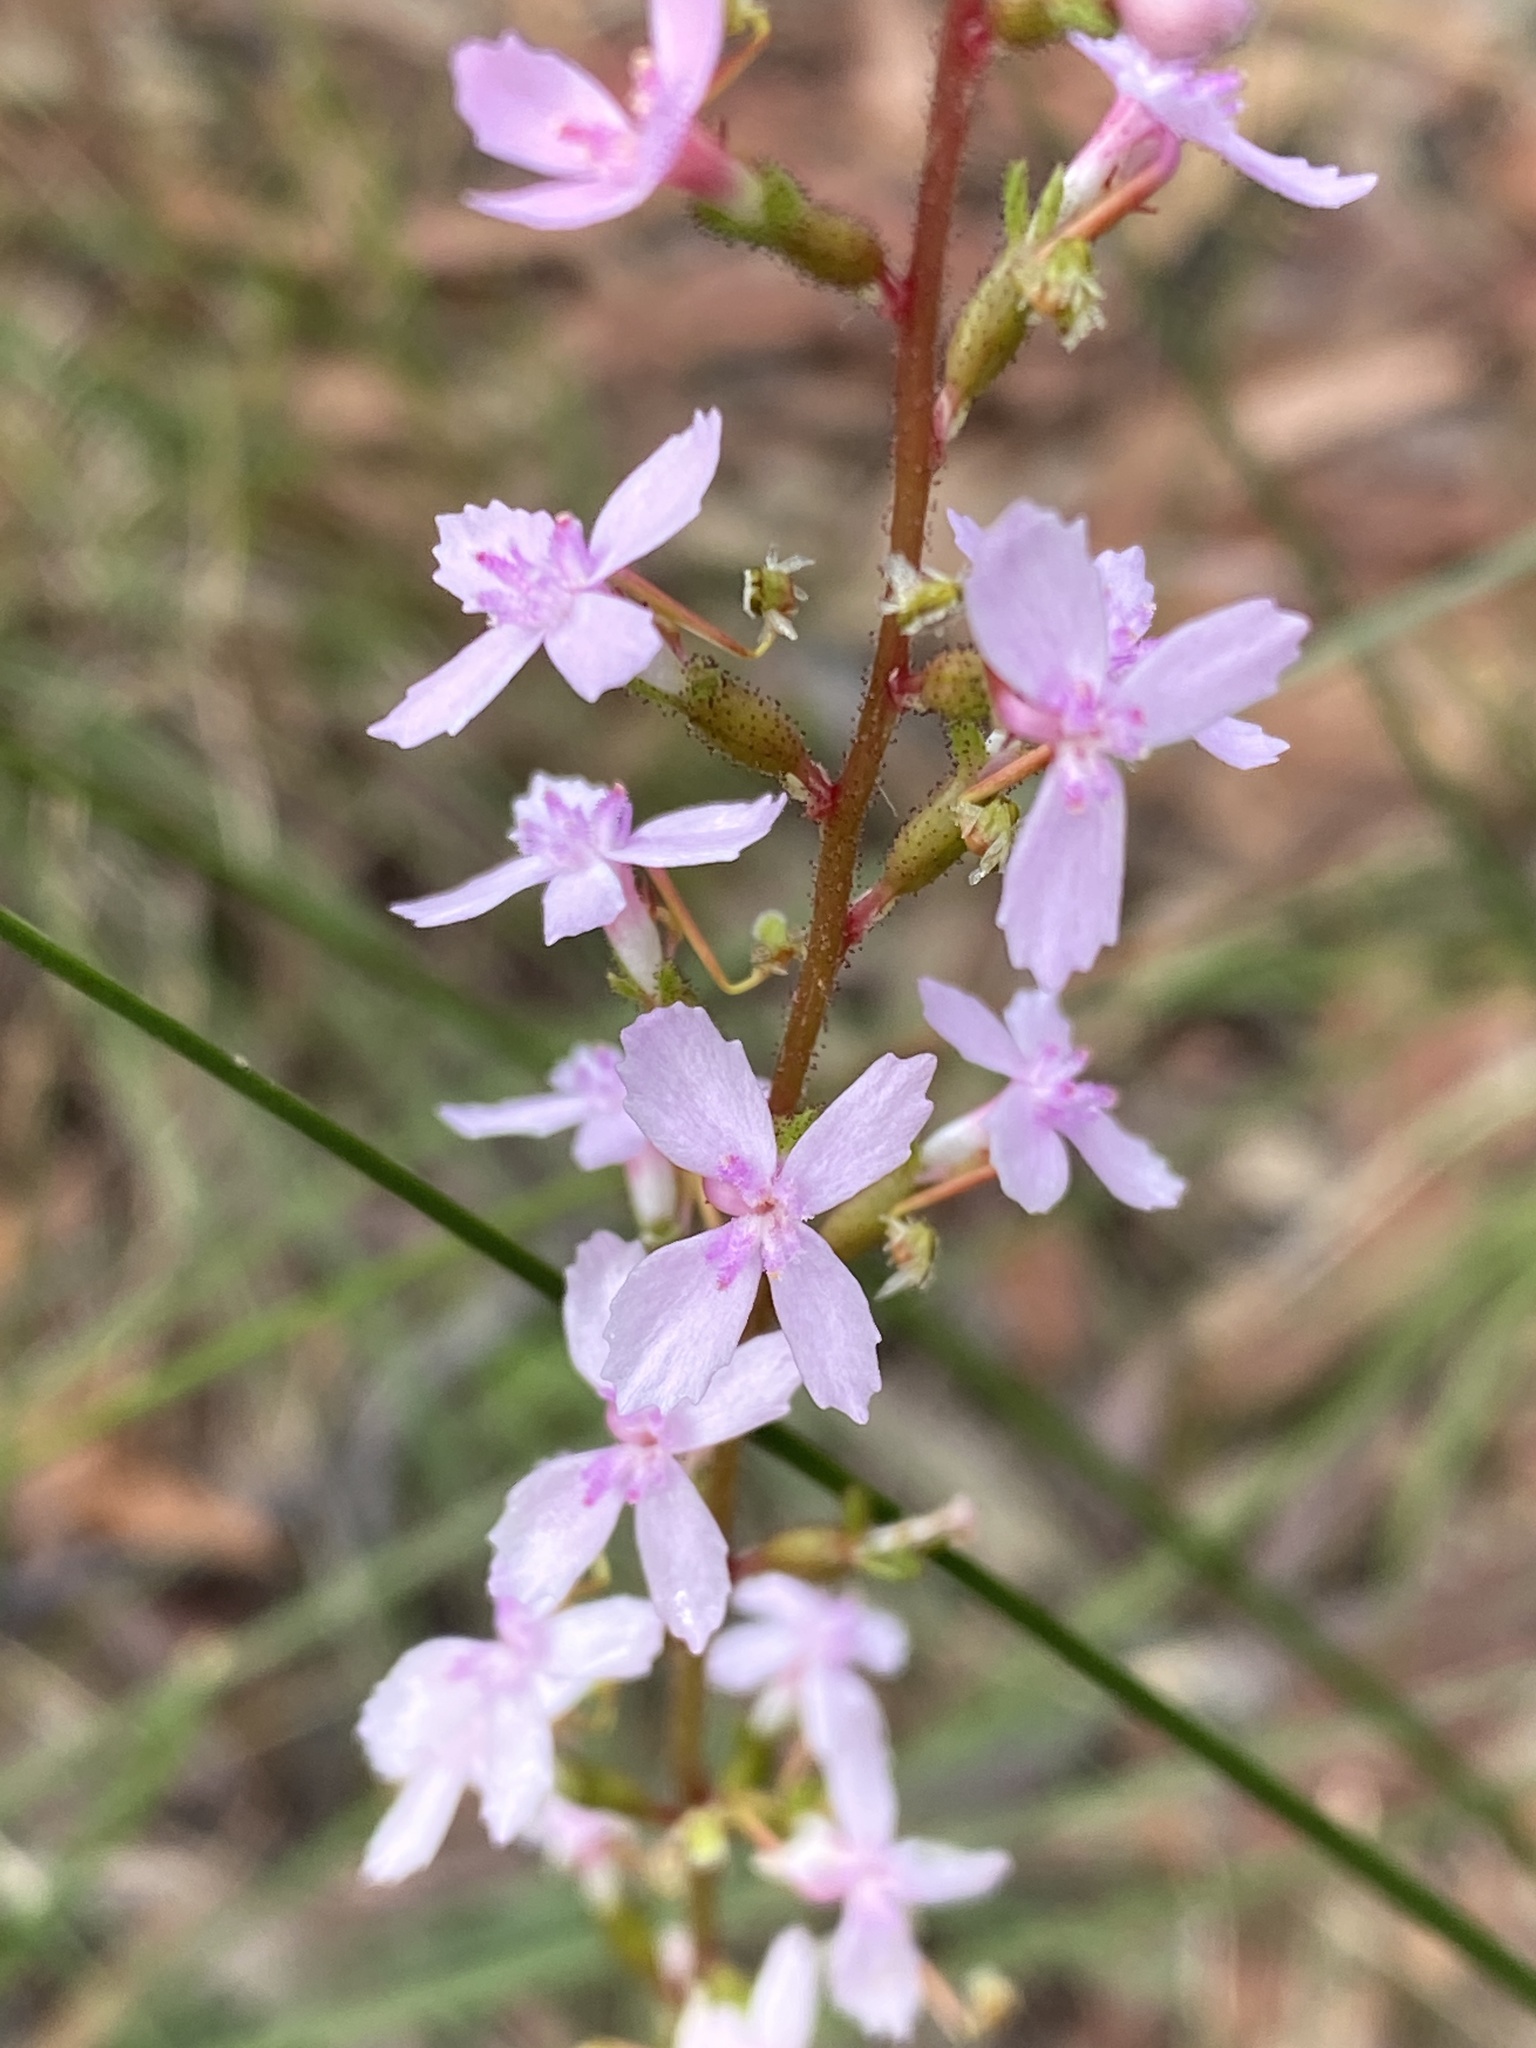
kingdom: Plantae
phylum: Tracheophyta
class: Magnoliopsida
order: Asterales
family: Stylidiaceae
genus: Stylidium
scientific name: Stylidium graminifolium
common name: Grass triggerplant
